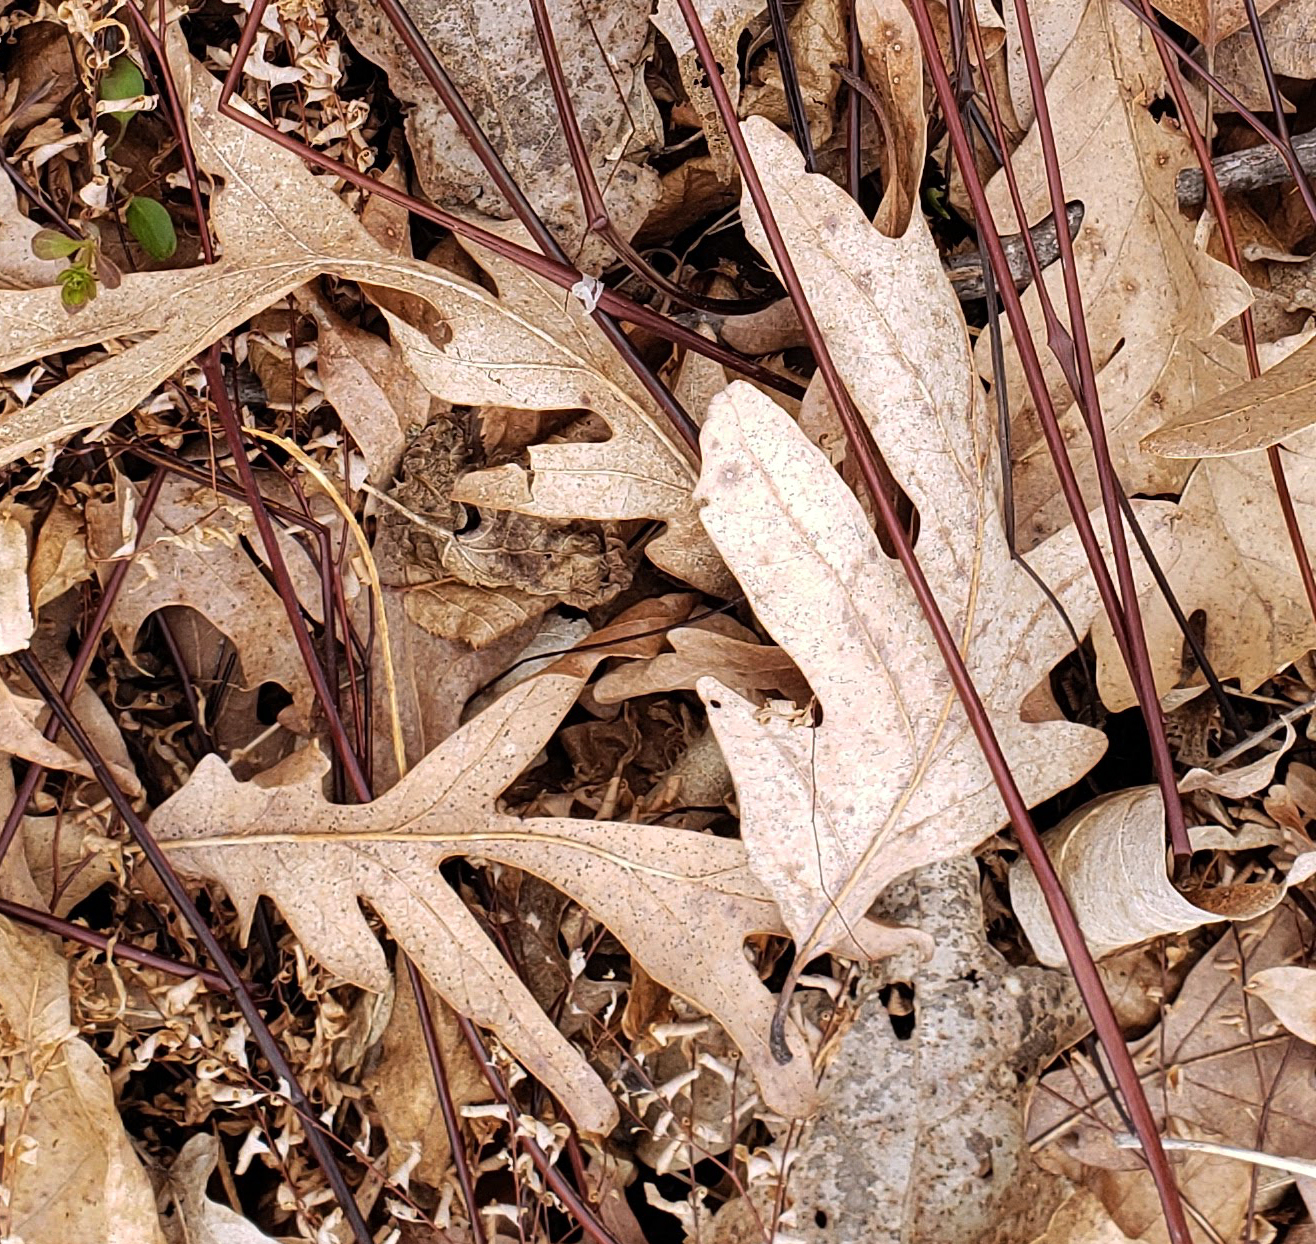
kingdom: Plantae
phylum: Tracheophyta
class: Magnoliopsida
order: Fagales
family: Fagaceae
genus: Quercus
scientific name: Quercus alba
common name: White oak
